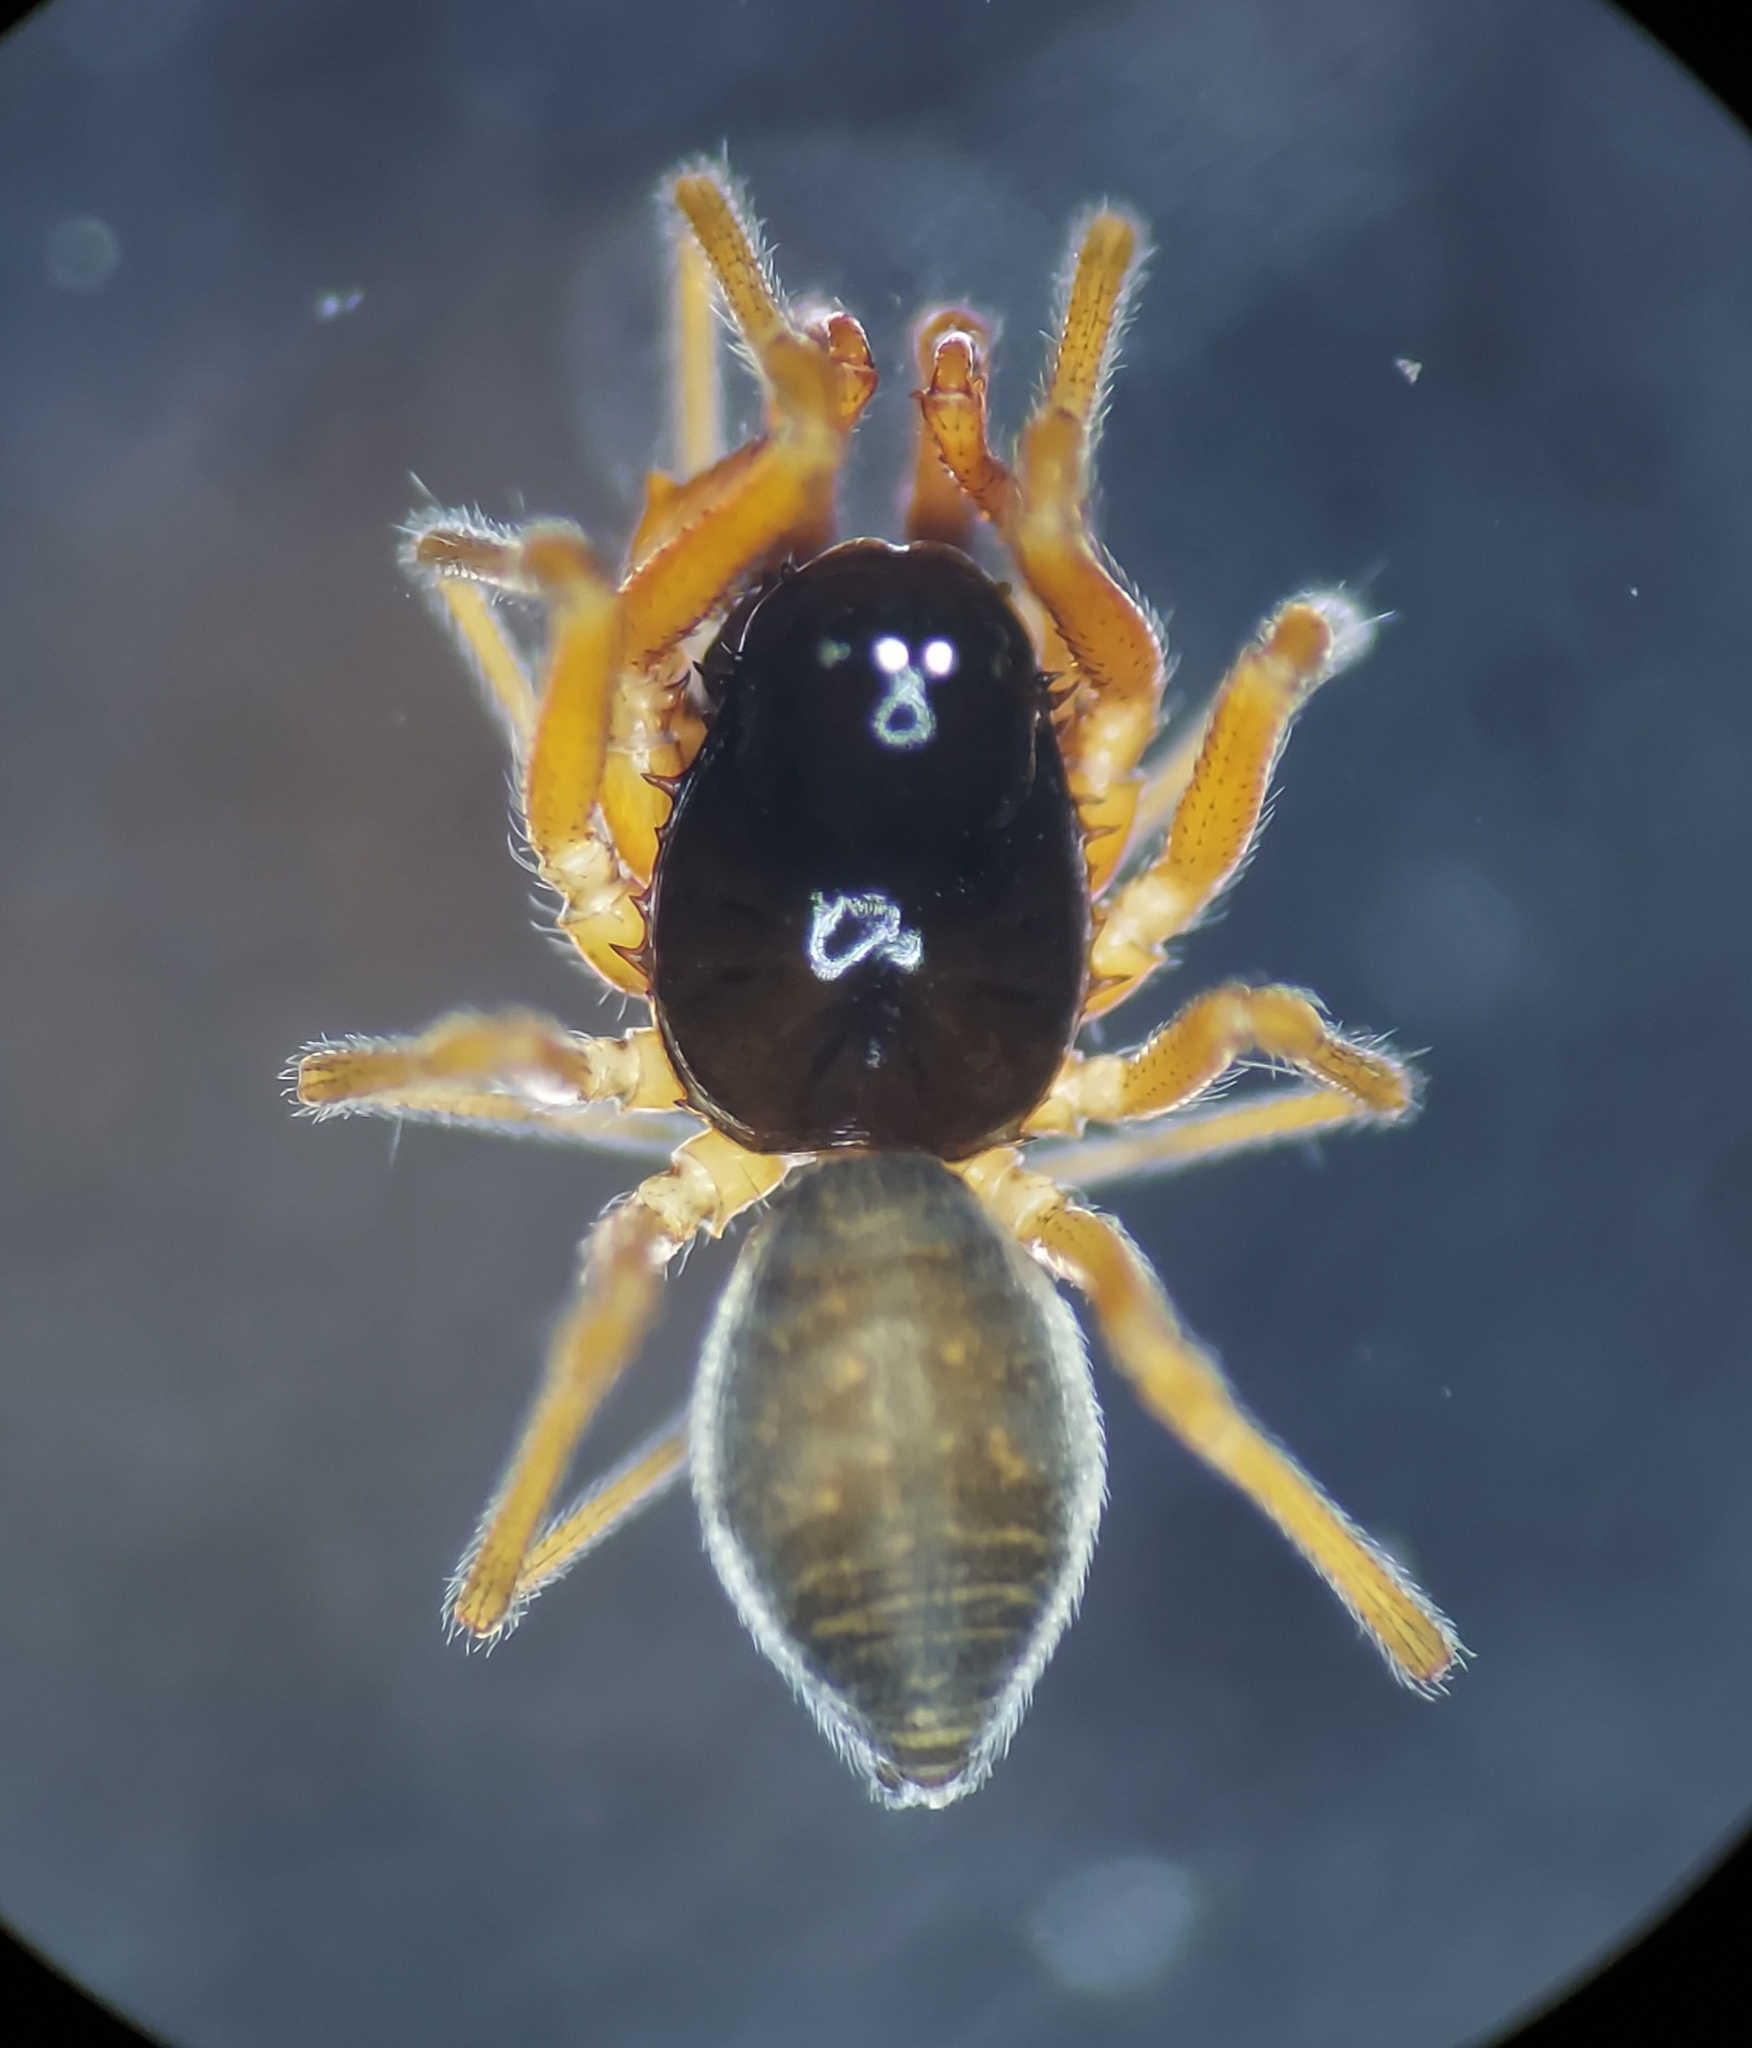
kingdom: Animalia
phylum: Arthropoda
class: Arachnida
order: Araneae
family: Linyphiidae
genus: Erigone
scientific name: Erigone dentosa
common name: Sheet-web spiders
